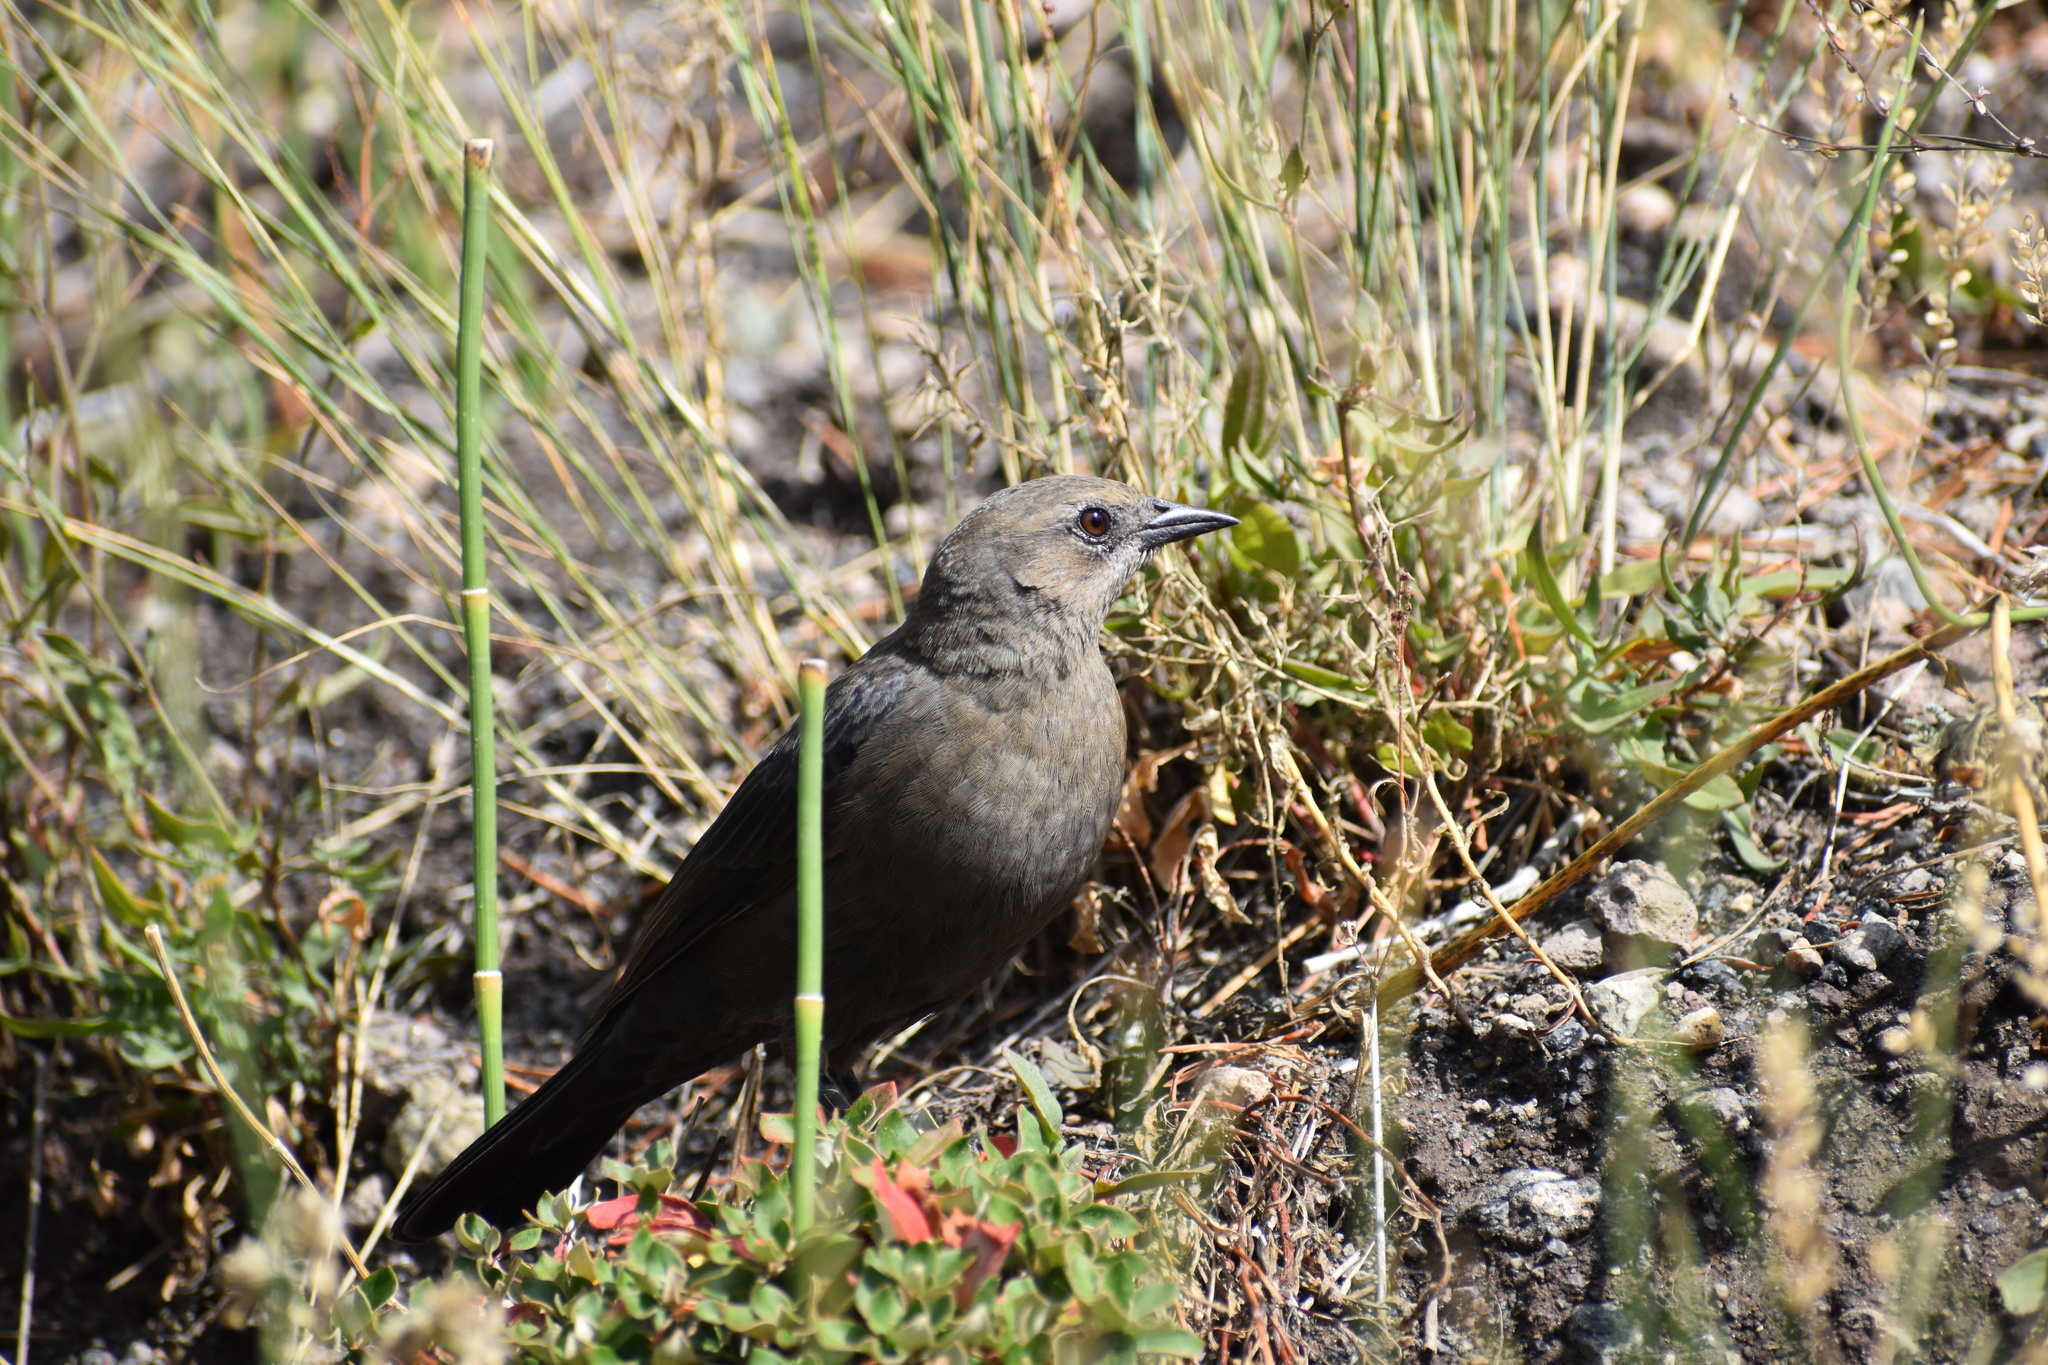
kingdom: Animalia
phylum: Chordata
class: Aves
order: Passeriformes
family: Icteridae
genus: Euphagus
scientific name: Euphagus cyanocephalus
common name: Brewer's blackbird
